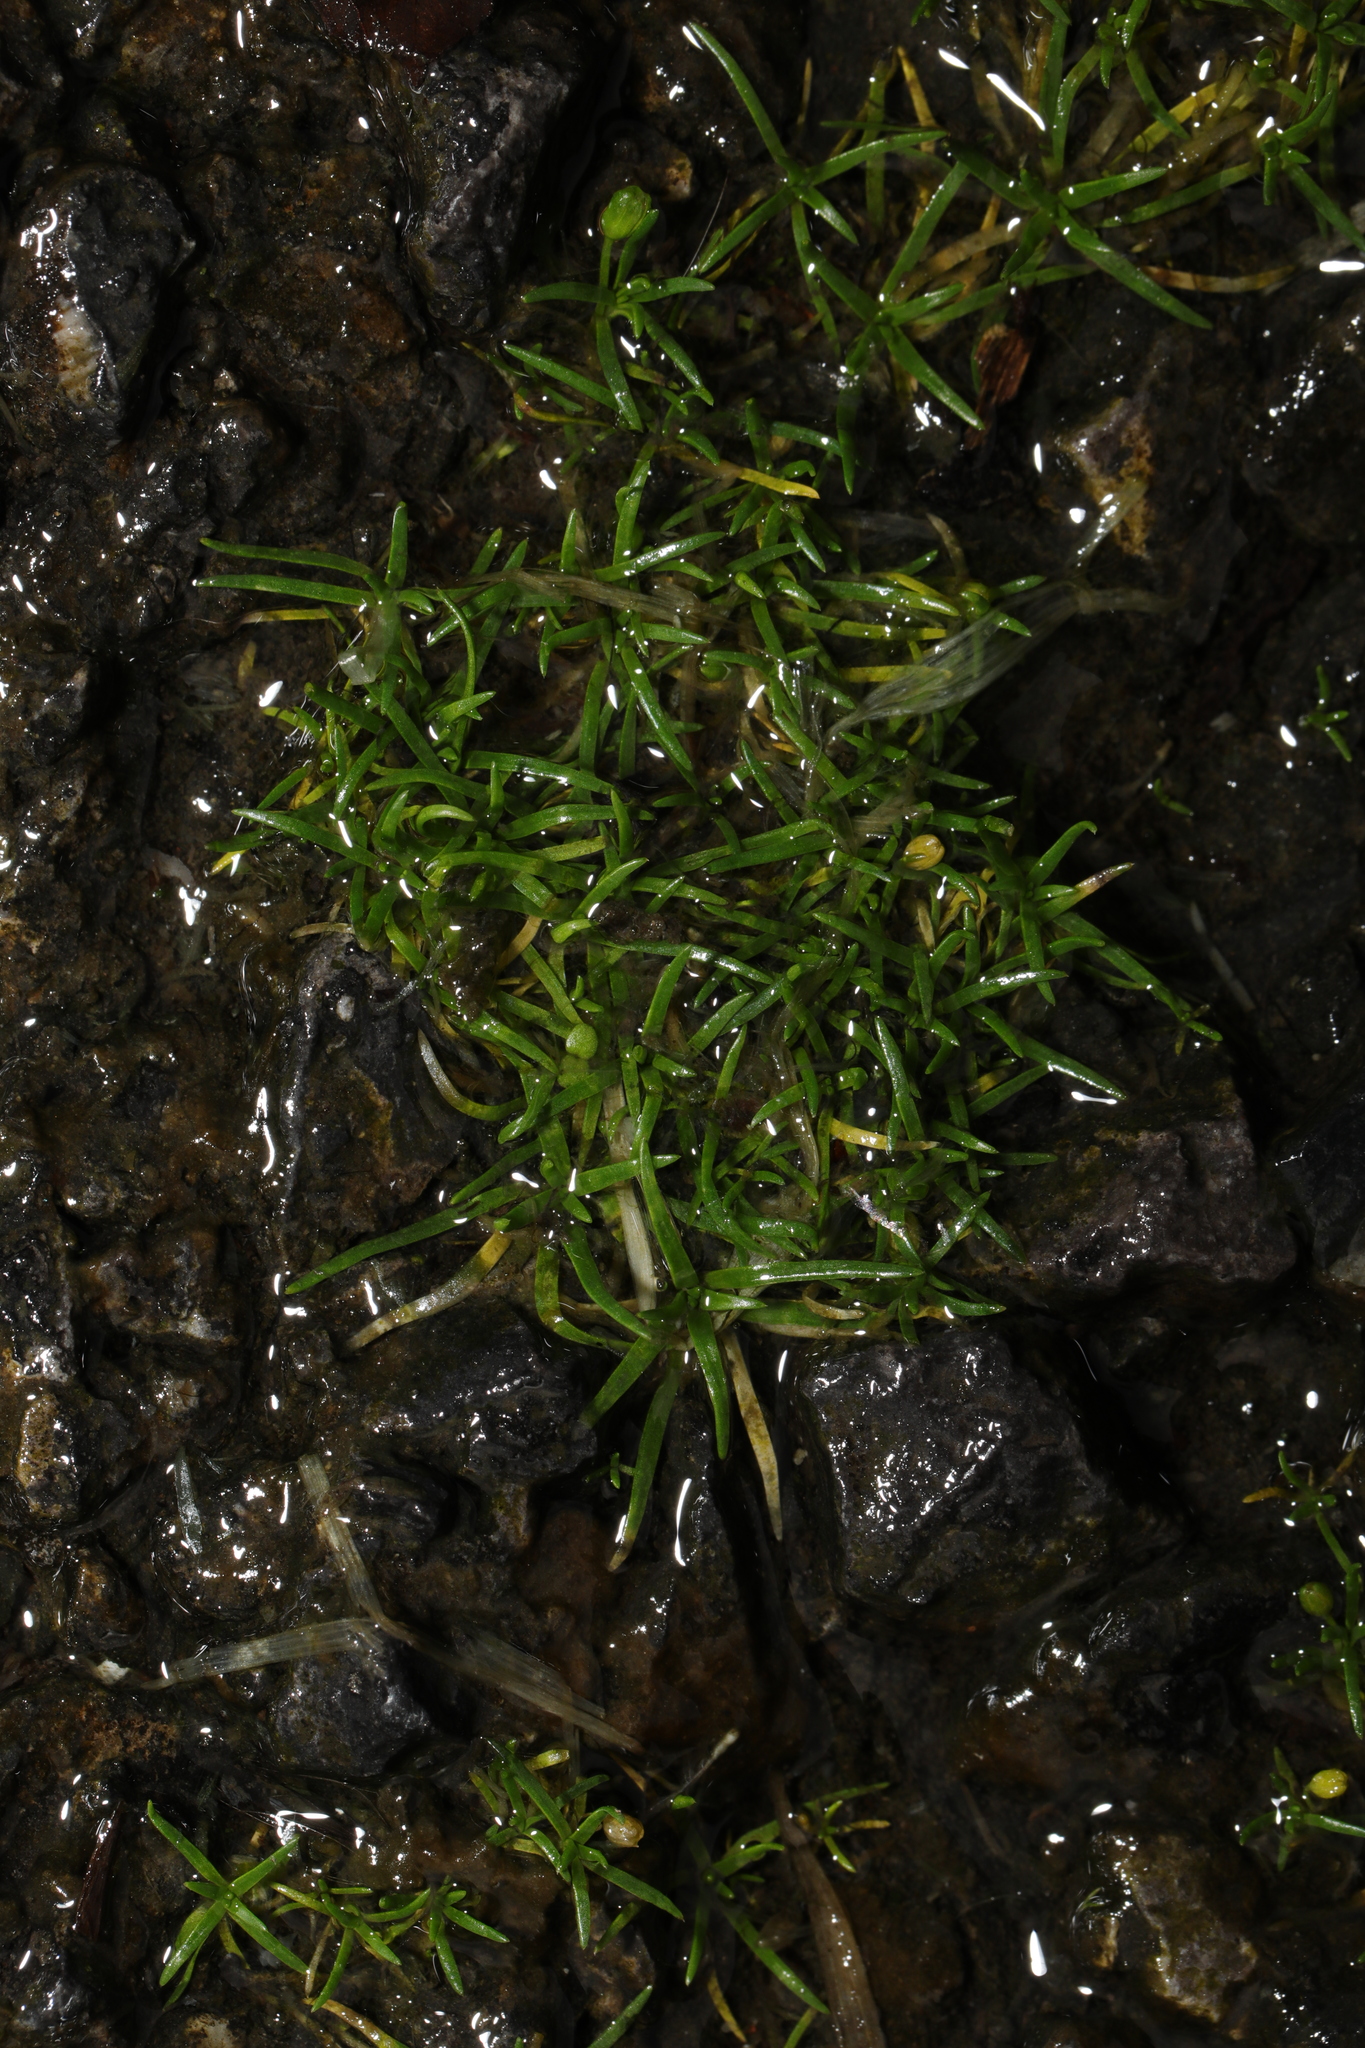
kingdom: Plantae
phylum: Tracheophyta
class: Magnoliopsida
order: Caryophyllales
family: Caryophyllaceae
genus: Sagina
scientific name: Sagina procumbens
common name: Procumbent pearlwort
